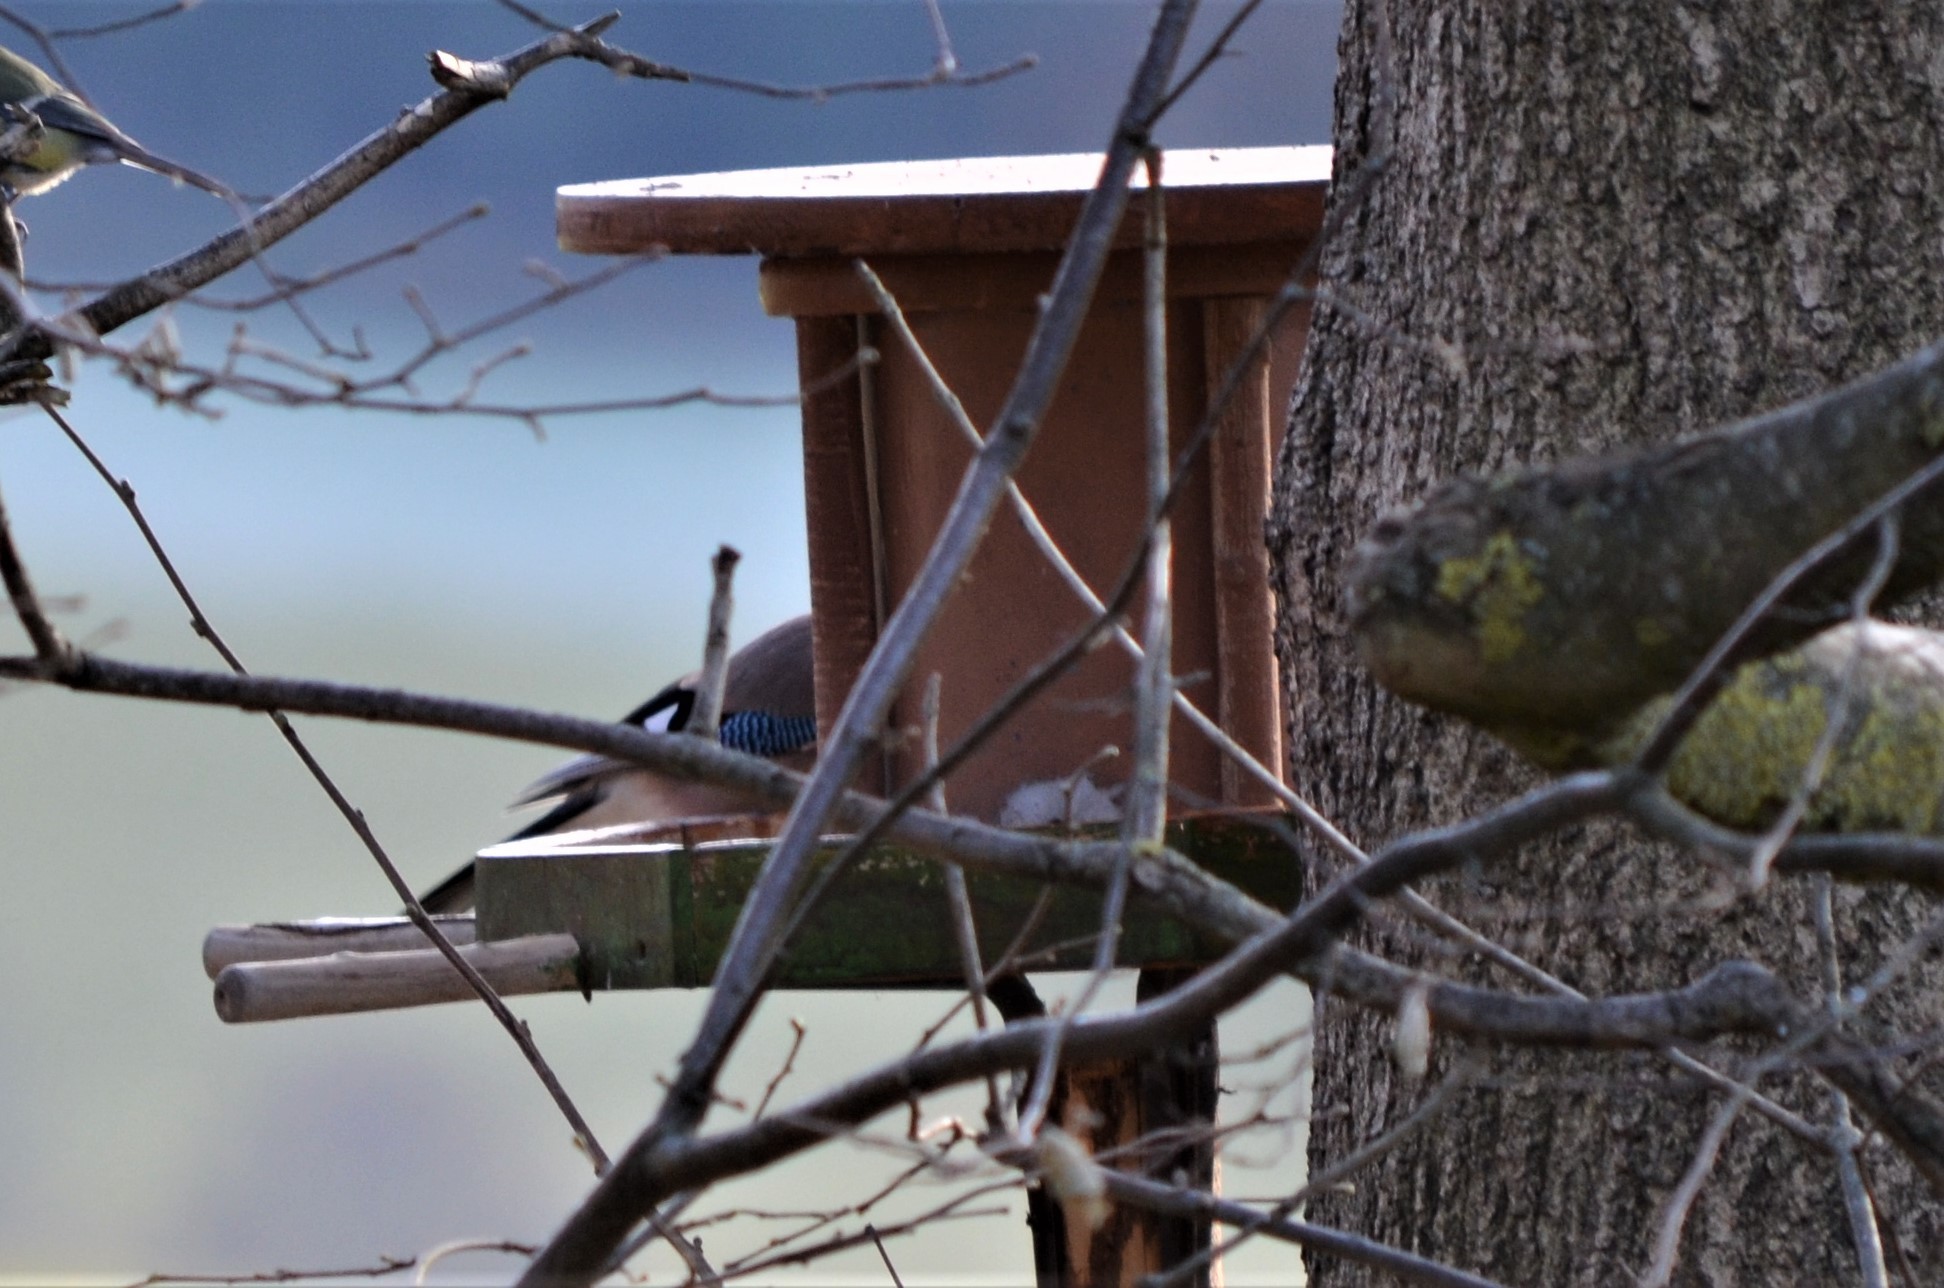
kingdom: Animalia
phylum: Chordata
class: Aves
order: Passeriformes
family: Corvidae
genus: Garrulus
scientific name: Garrulus glandarius
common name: Eurasian jay
